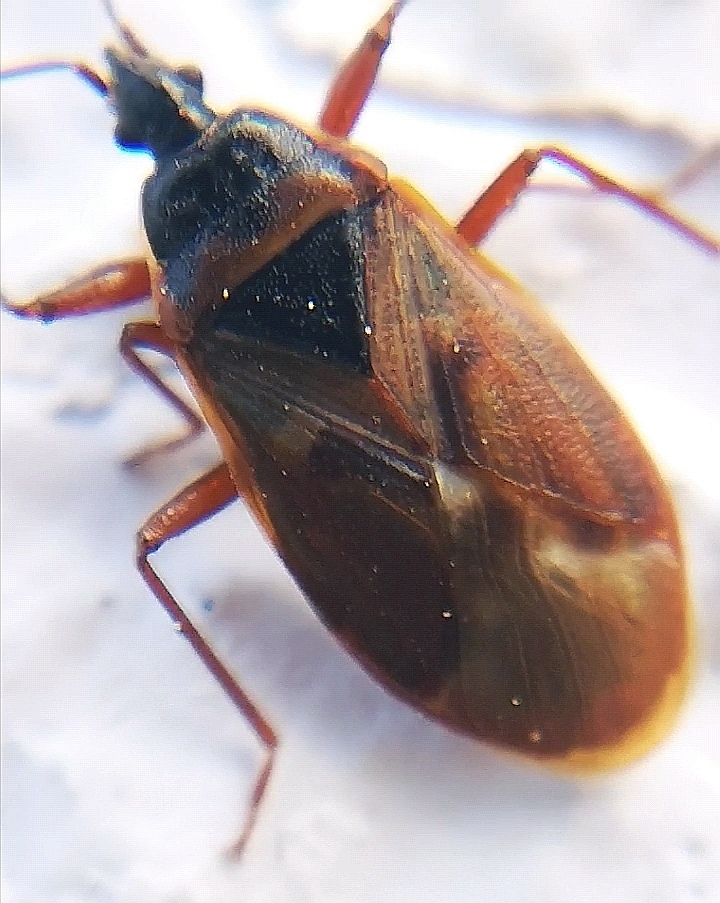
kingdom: Animalia
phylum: Arthropoda
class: Insecta
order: Hemiptera
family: Rhyparochromidae
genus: Gastrodes
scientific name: Gastrodes abietum
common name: Spruce cone bug
